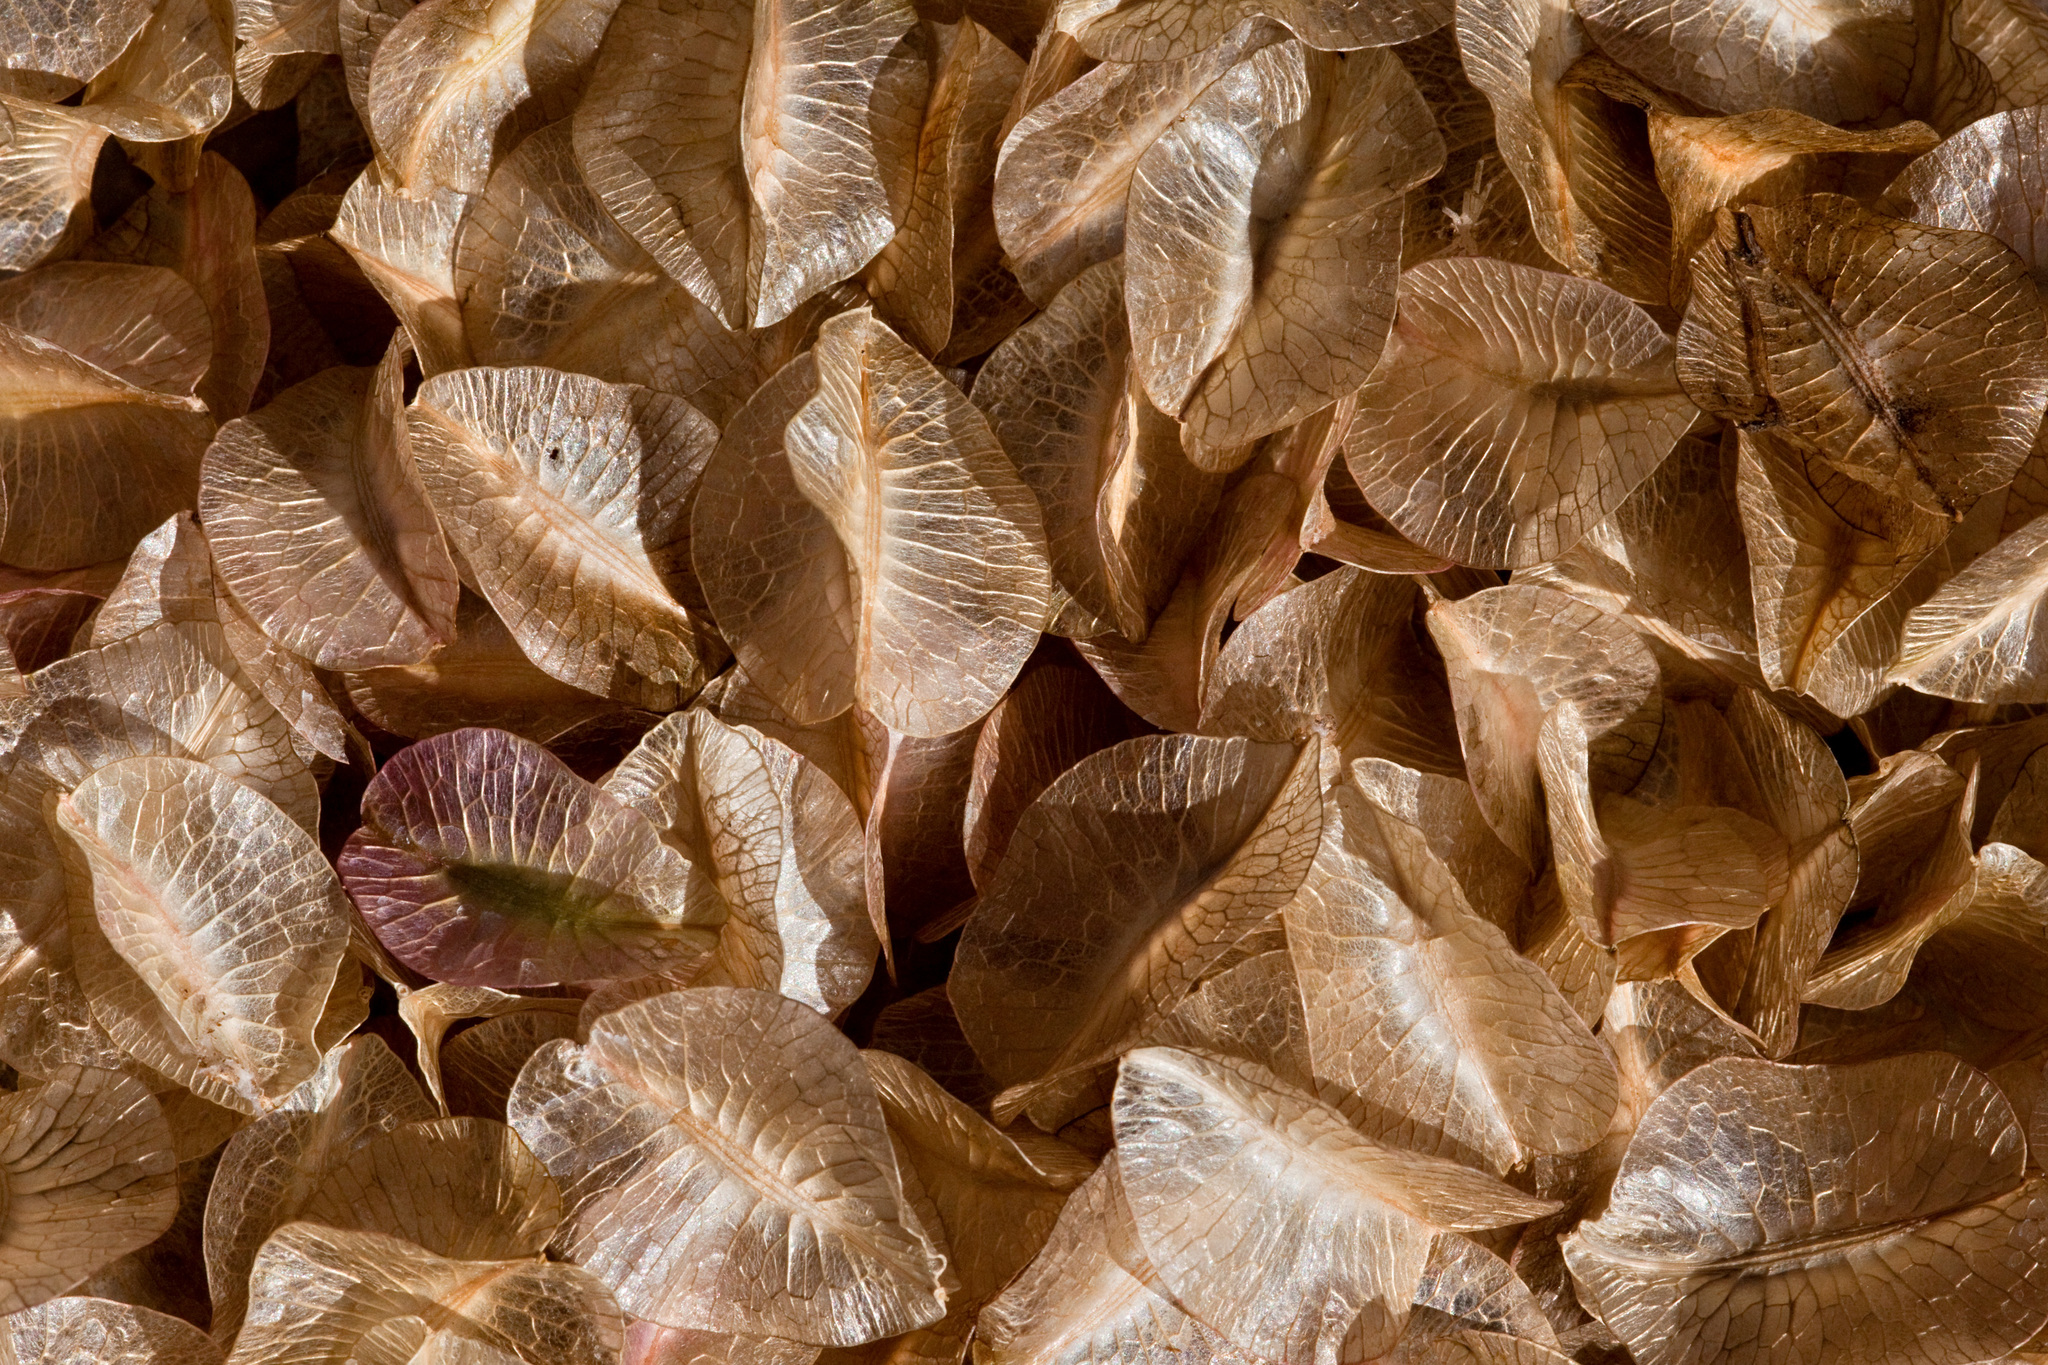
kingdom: Plantae
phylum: Tracheophyta
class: Magnoliopsida
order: Caryophyllales
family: Nyctaginaceae
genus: Tripterocalyx
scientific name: Tripterocalyx carneus
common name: Winged sandpuffs
